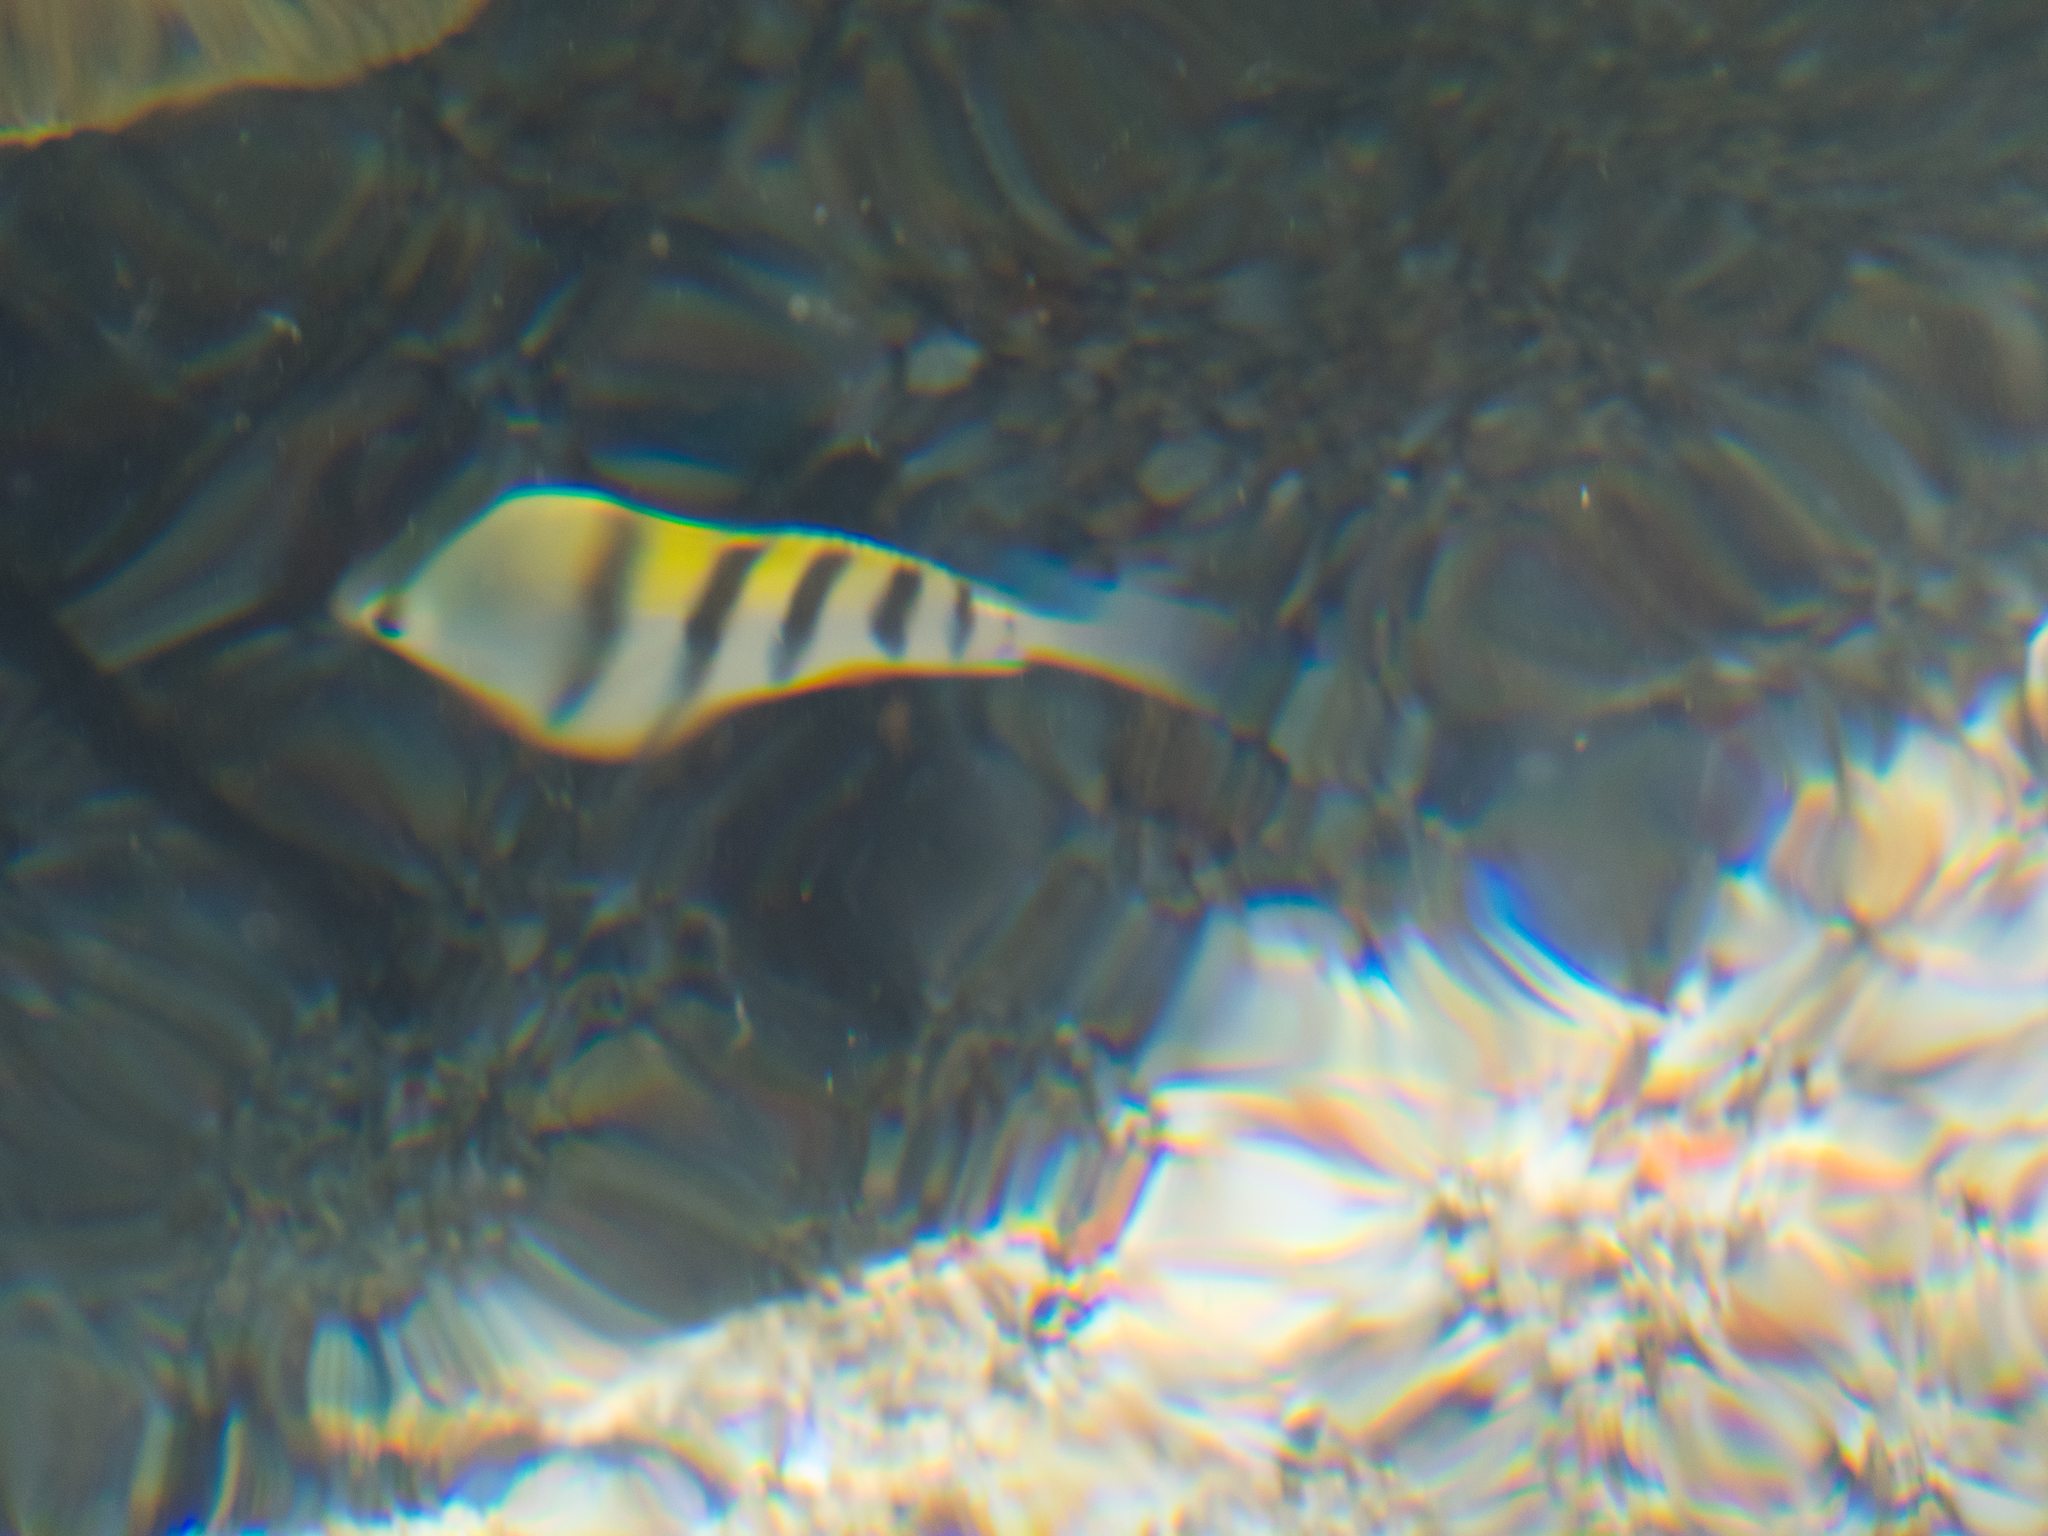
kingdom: Animalia
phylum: Chordata
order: Perciformes
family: Pomacentridae
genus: Abudefduf
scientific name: Abudefduf saxatilis
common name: Sergeant major
